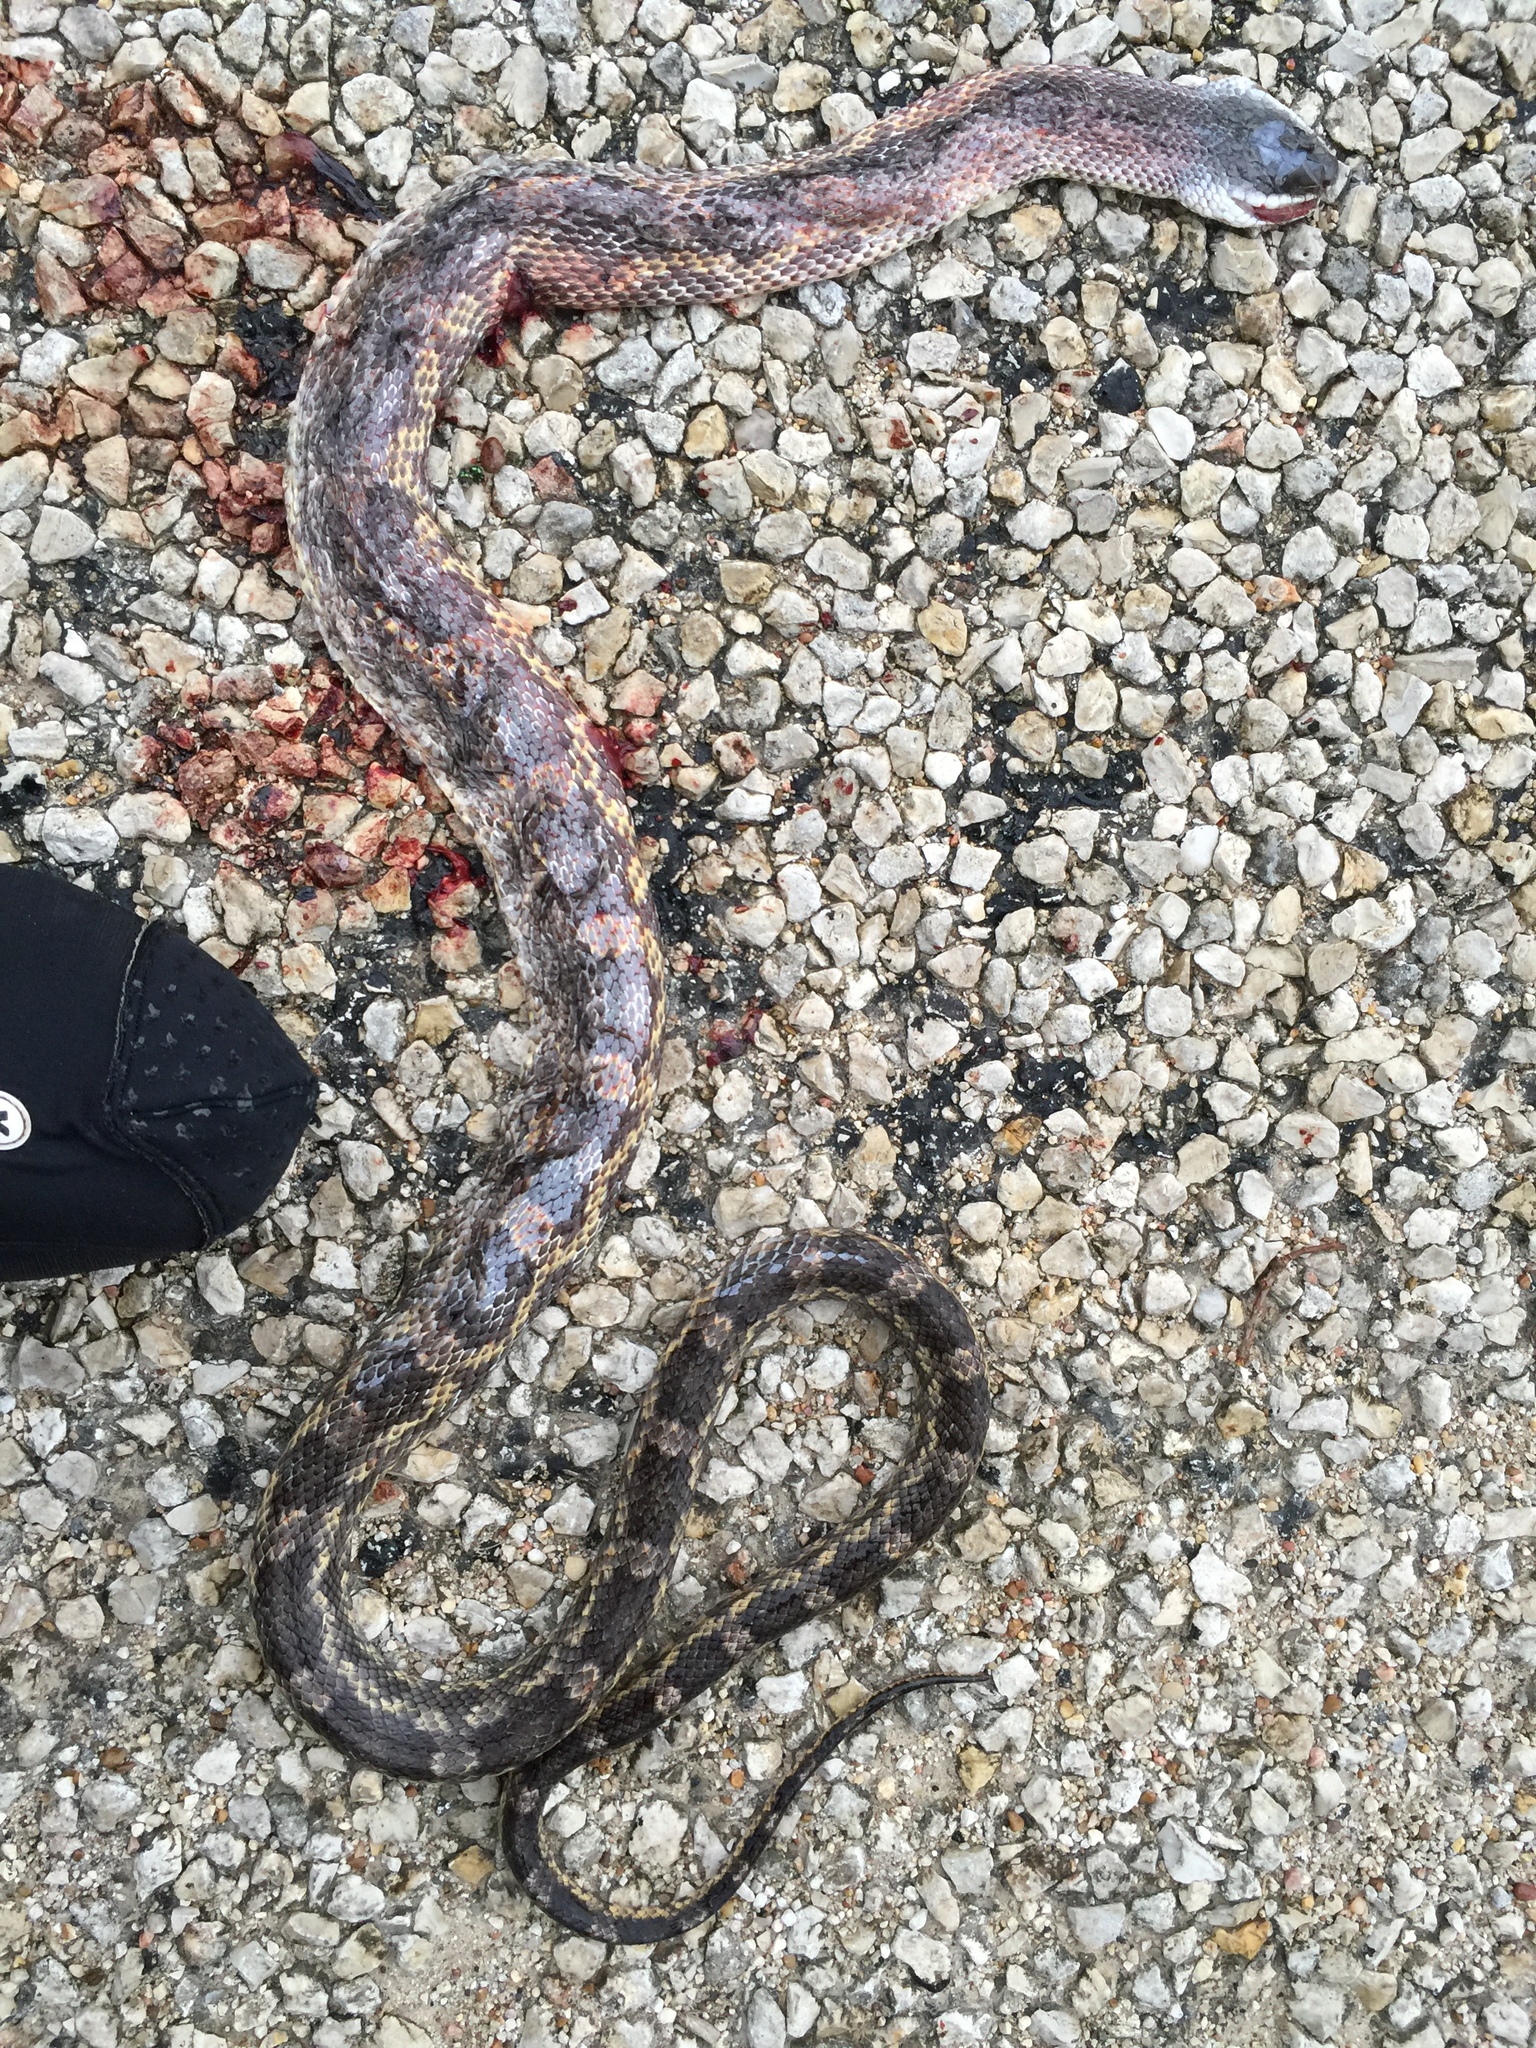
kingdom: Animalia
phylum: Chordata
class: Squamata
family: Colubridae
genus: Pantherophis
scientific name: Pantherophis obsoletus
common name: Black rat snake
